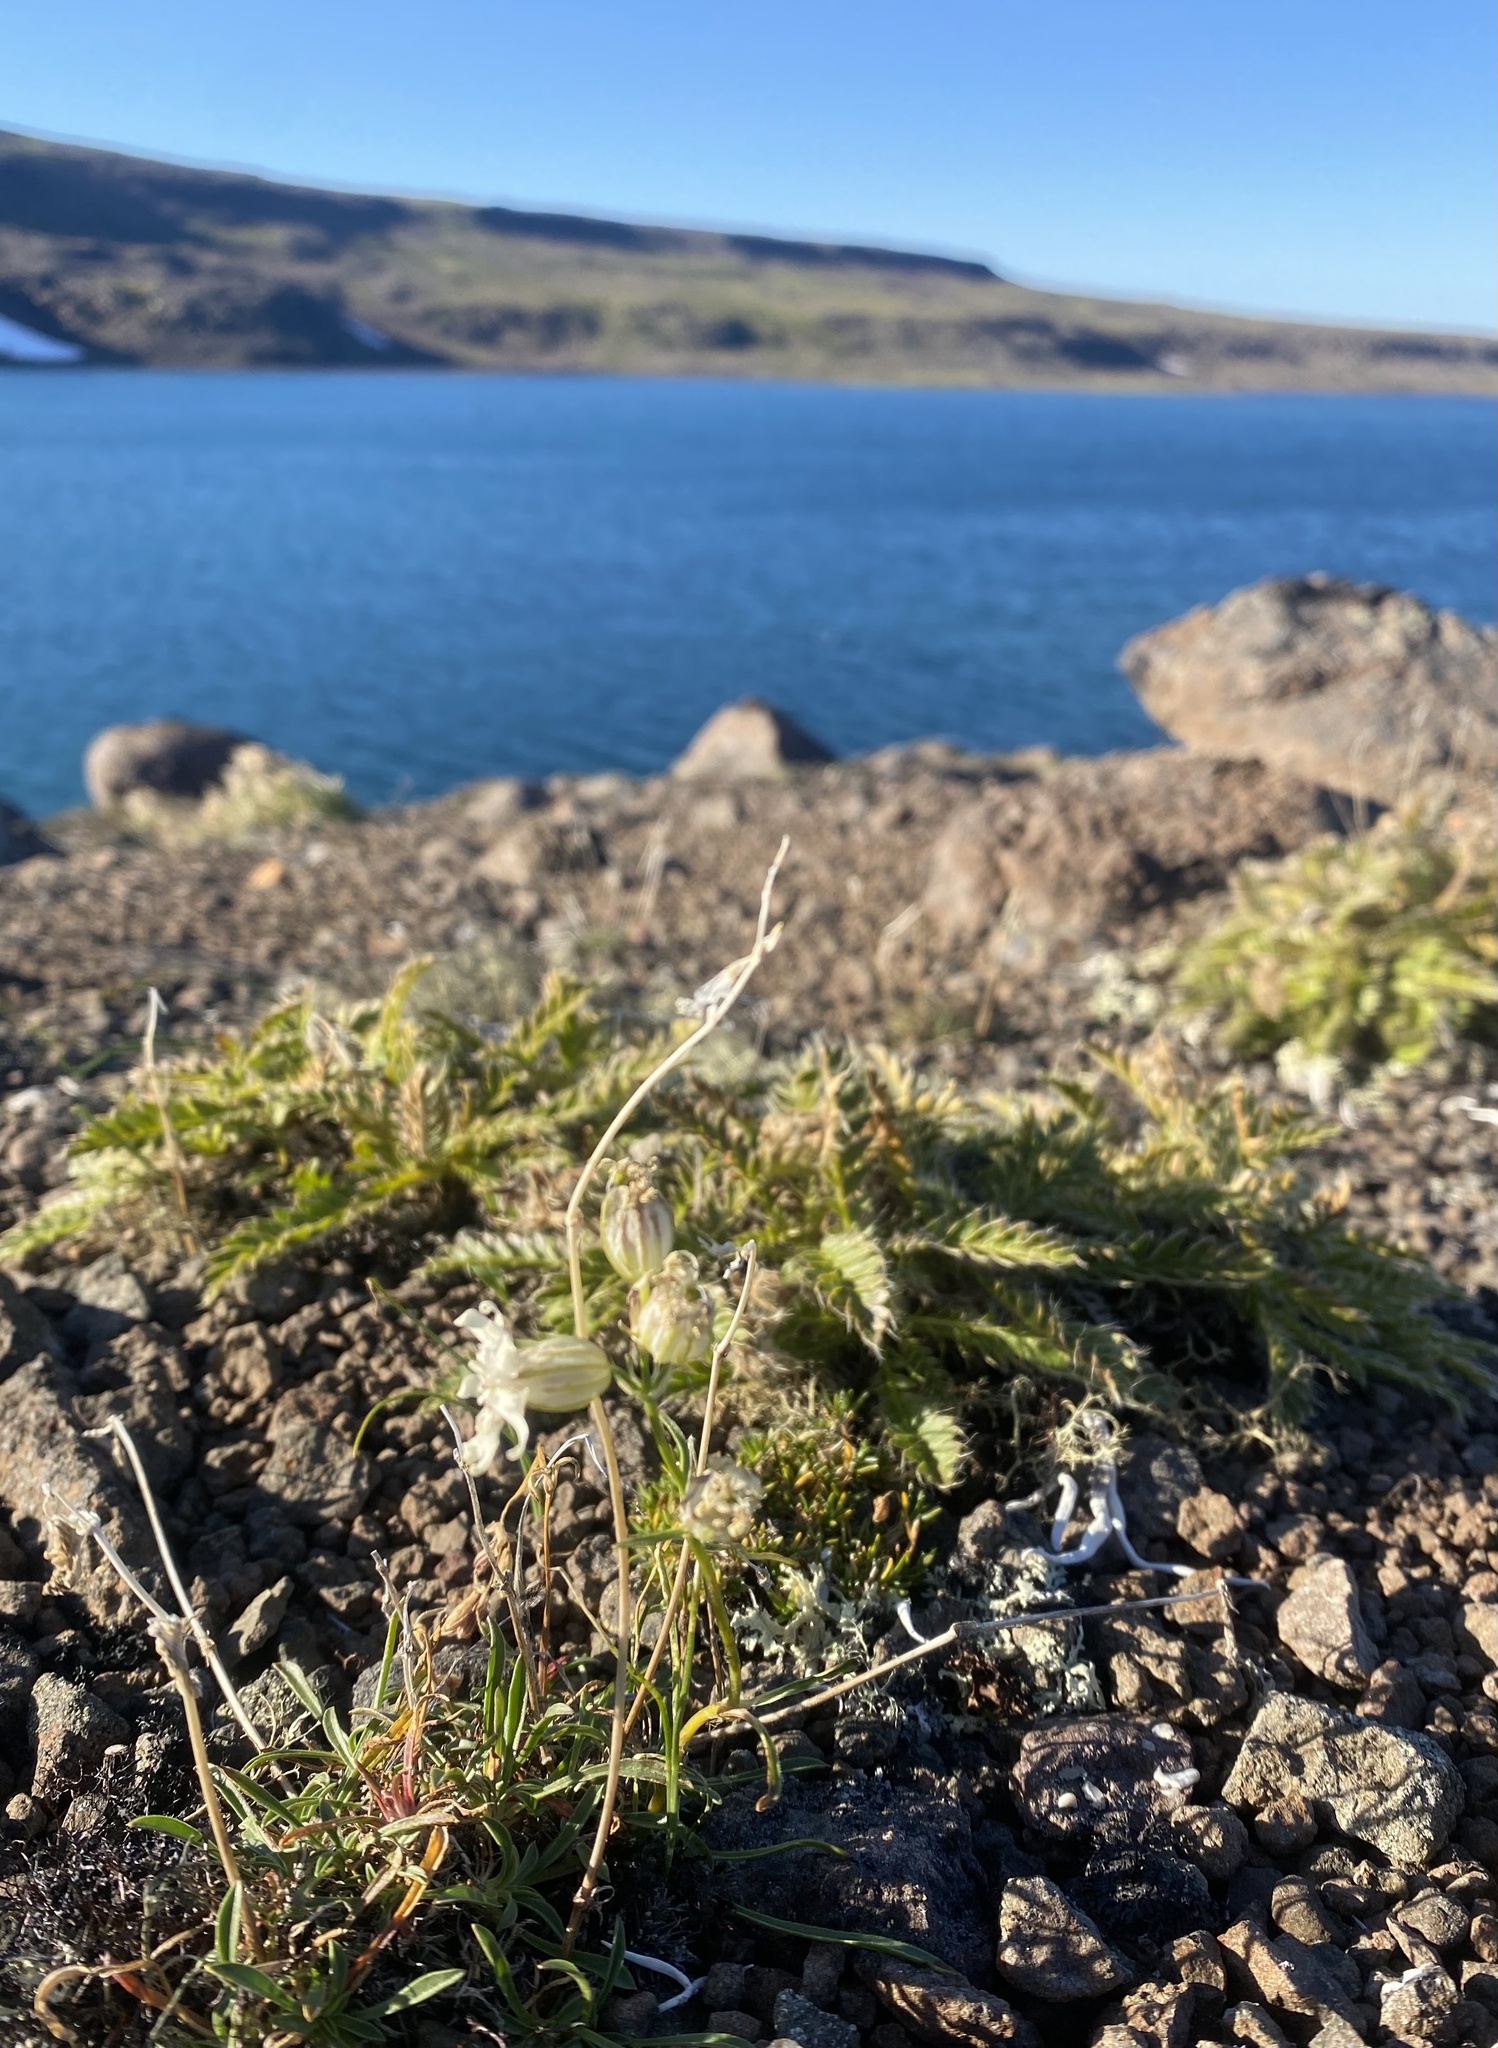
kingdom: Plantae
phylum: Tracheophyta
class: Magnoliopsida
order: Caryophyllales
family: Caryophyllaceae
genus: Silene
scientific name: Silene chamarensis
